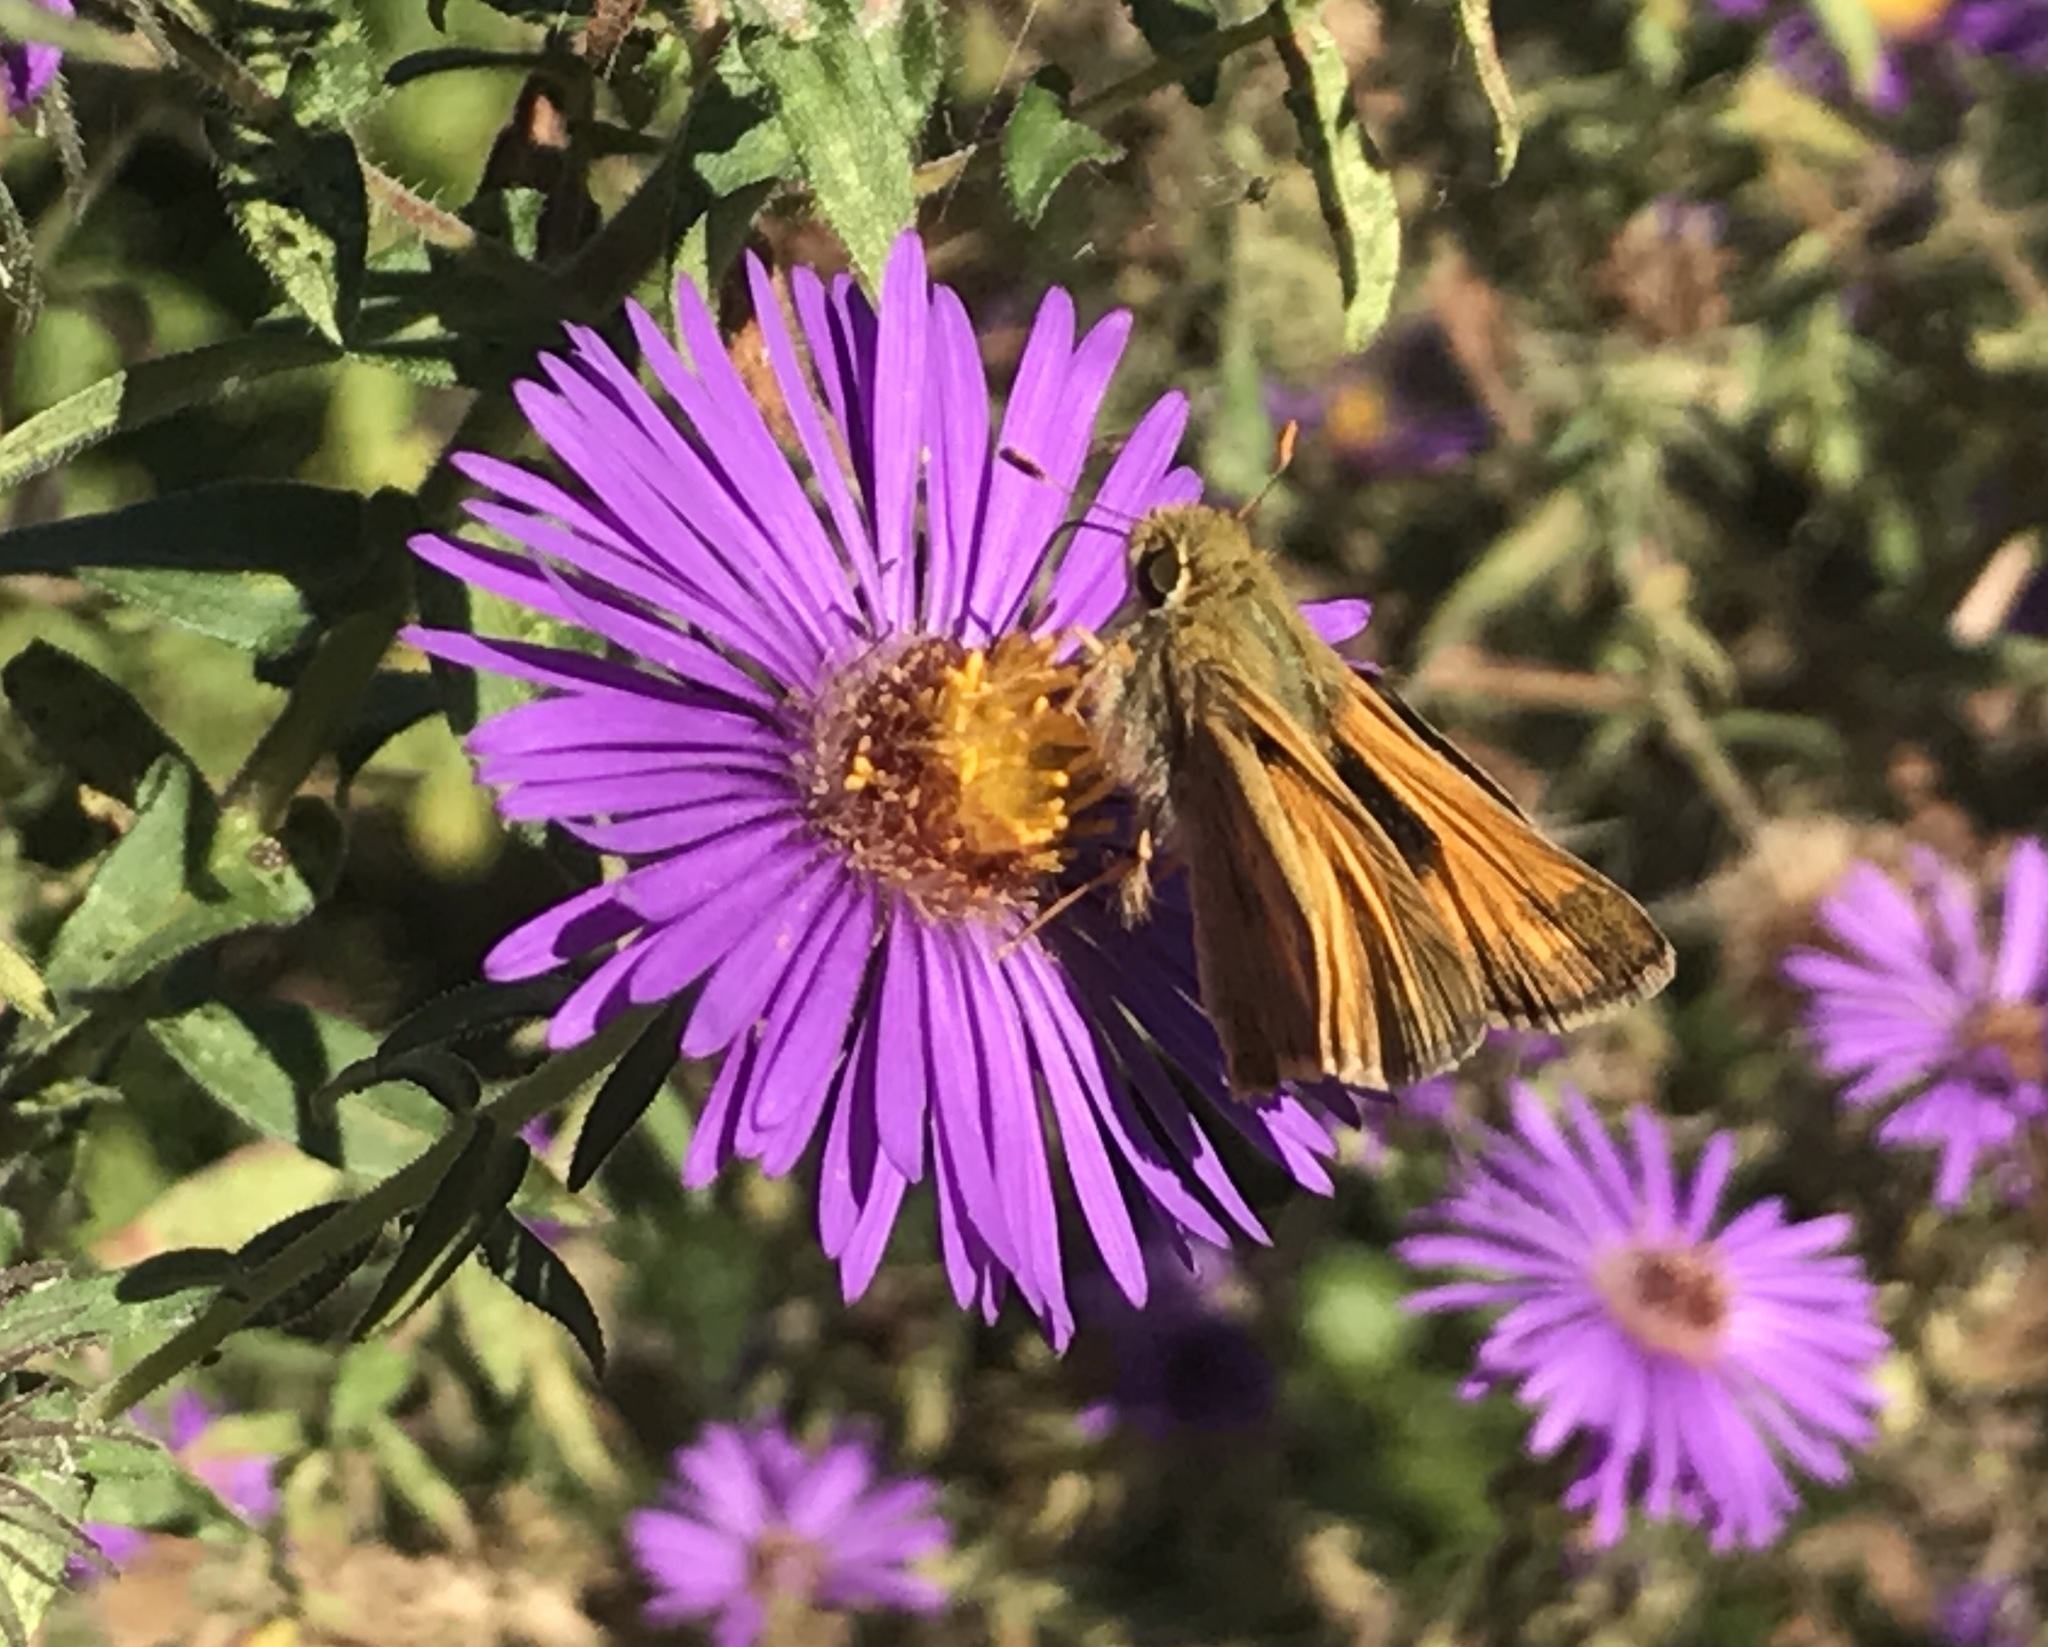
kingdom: Animalia
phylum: Arthropoda
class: Insecta
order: Lepidoptera
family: Hesperiidae
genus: Atalopedes
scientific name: Atalopedes
